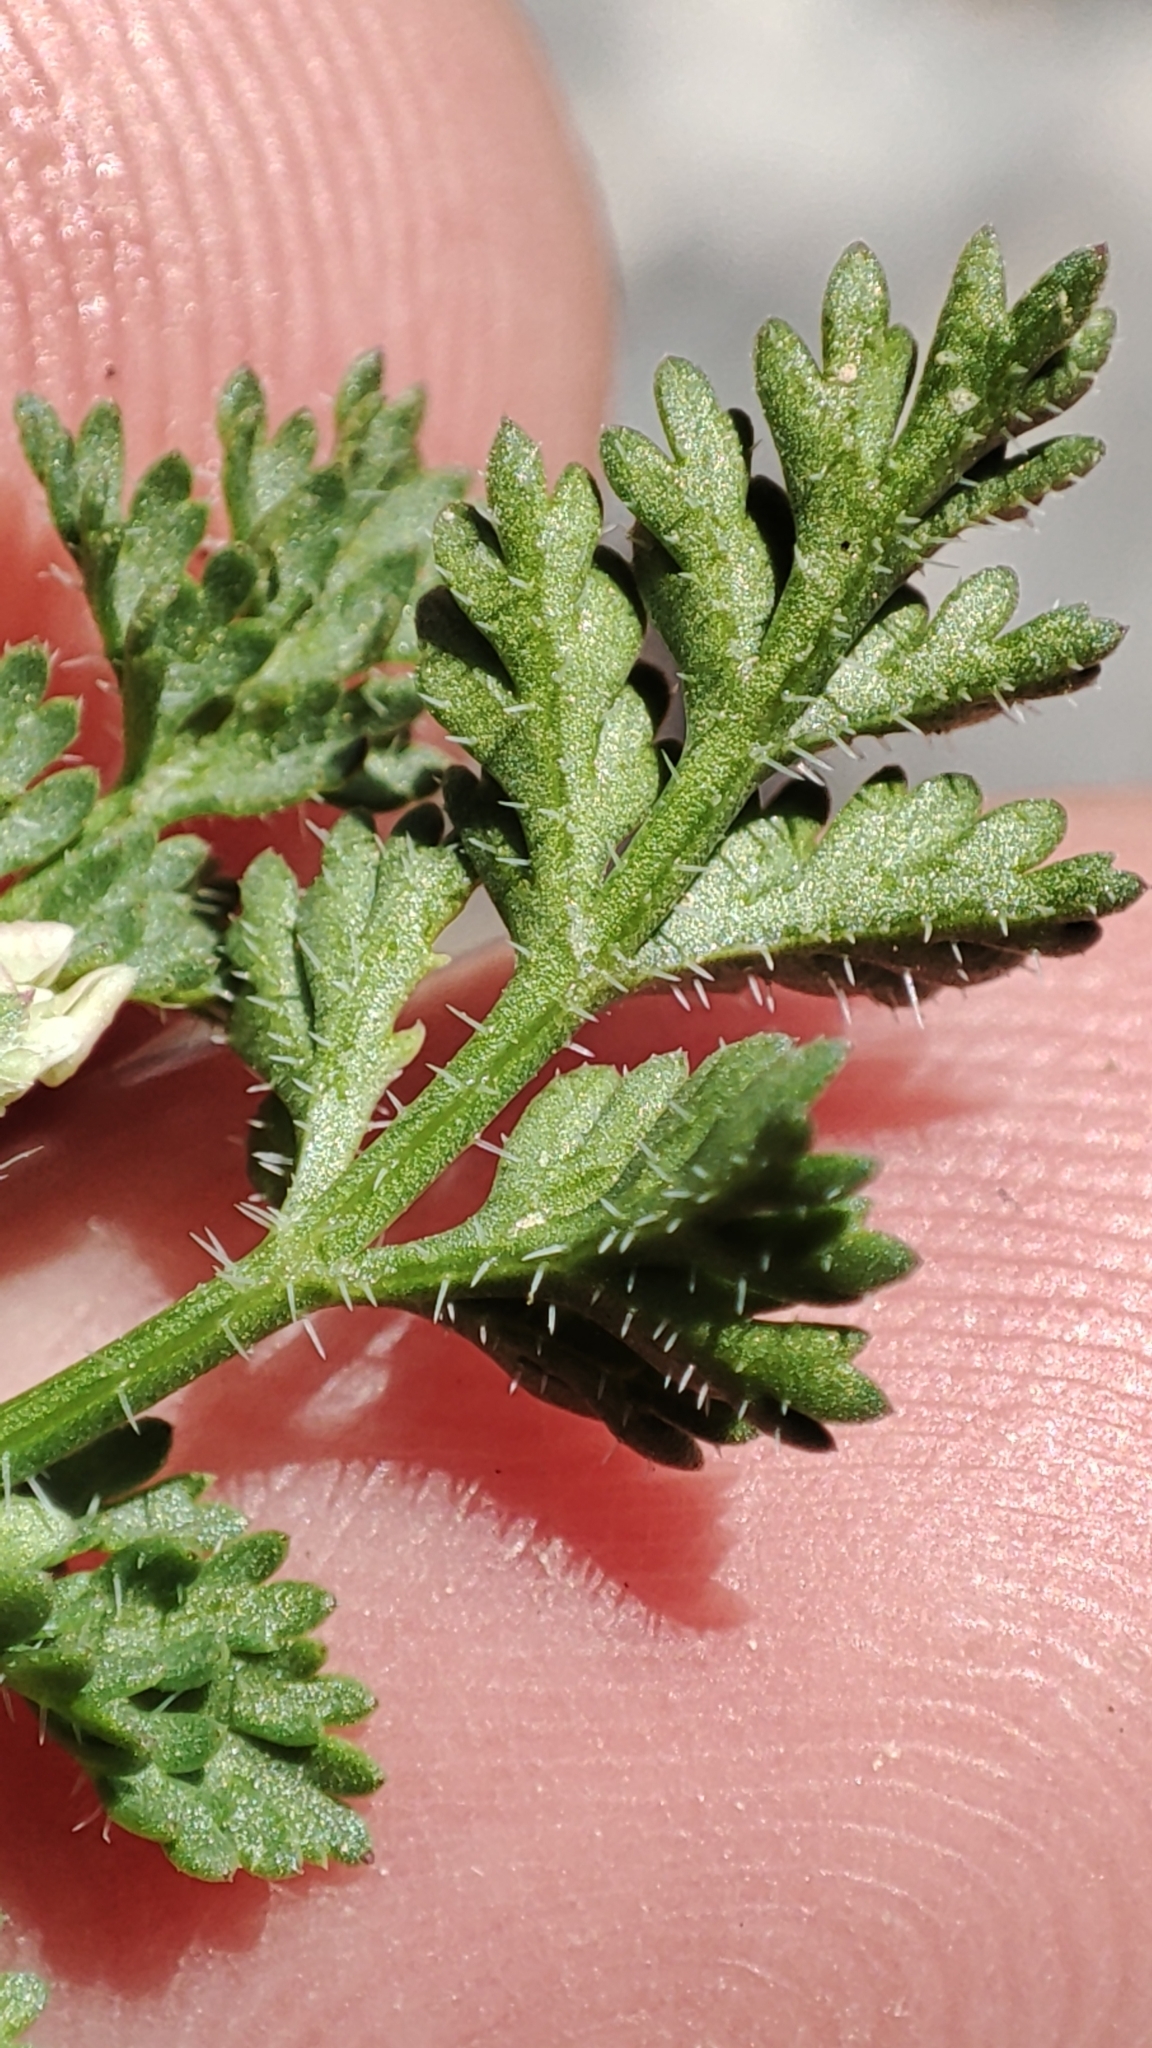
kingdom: Plantae
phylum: Tracheophyta
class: Magnoliopsida
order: Apiales
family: Apiaceae
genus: Orlaya
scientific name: Orlaya daucoides
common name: Flat-fruit orlaya
